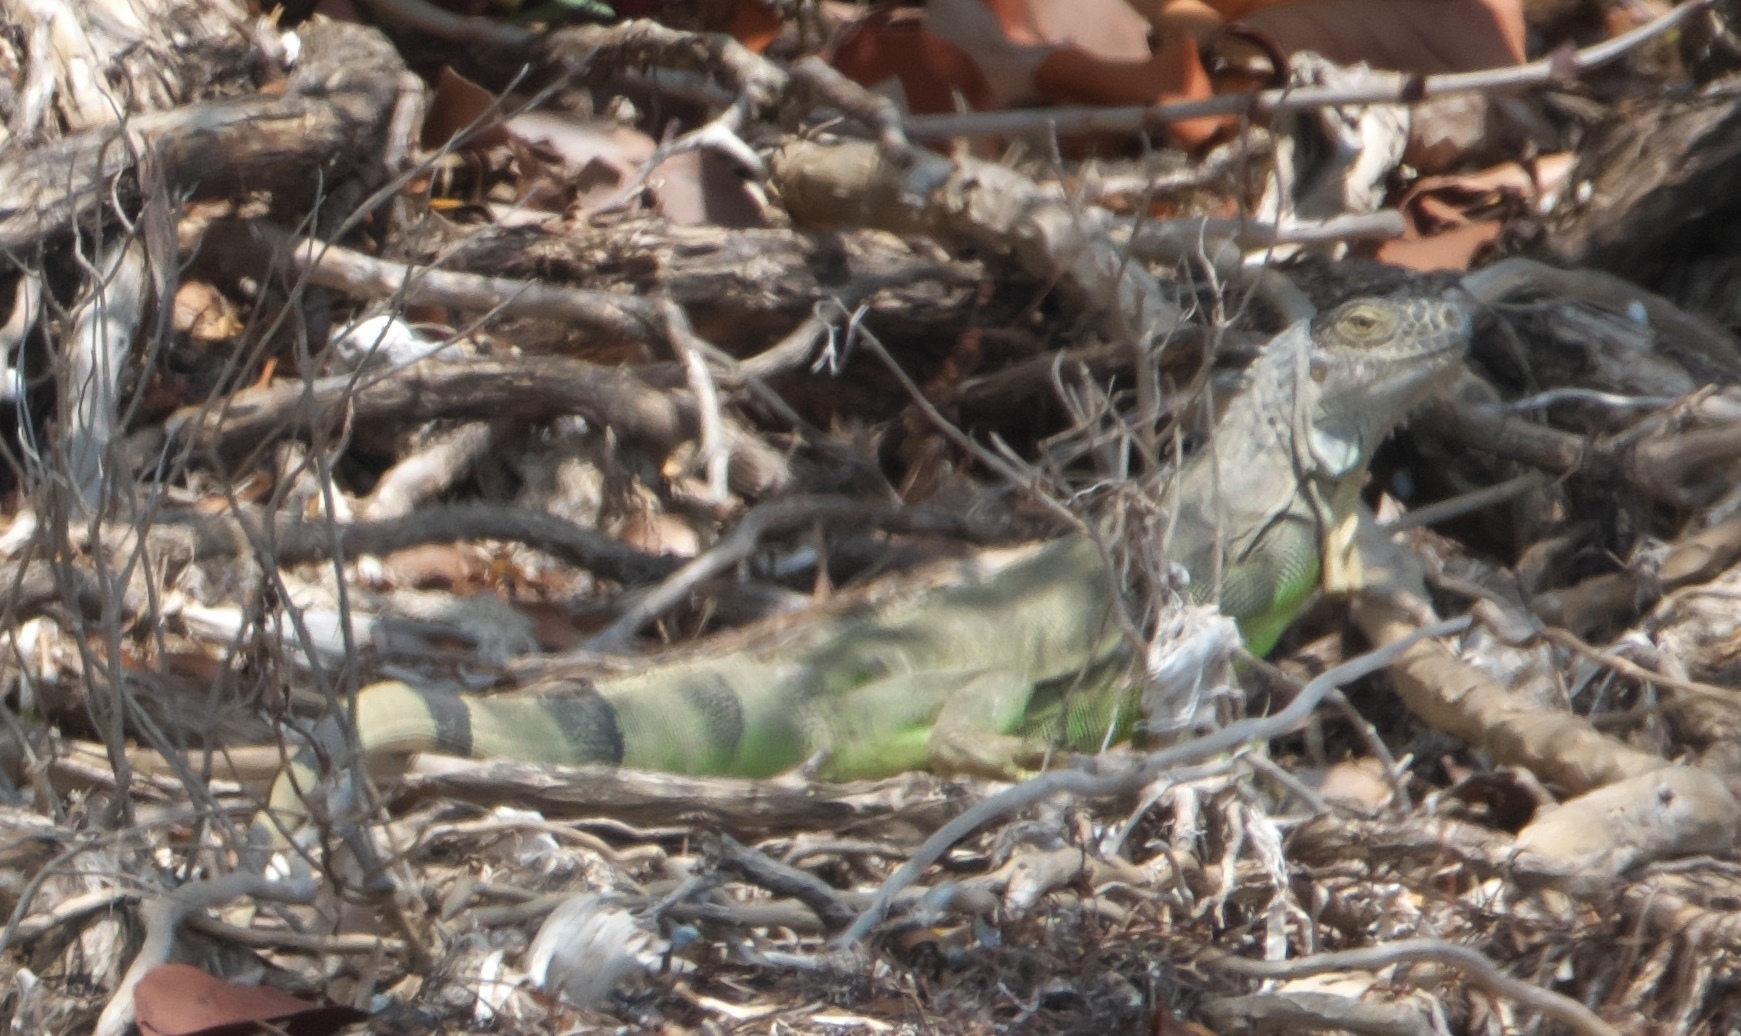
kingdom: Animalia
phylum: Chordata
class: Squamata
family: Iguanidae
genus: Iguana
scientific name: Iguana iguana
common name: Green iguana
